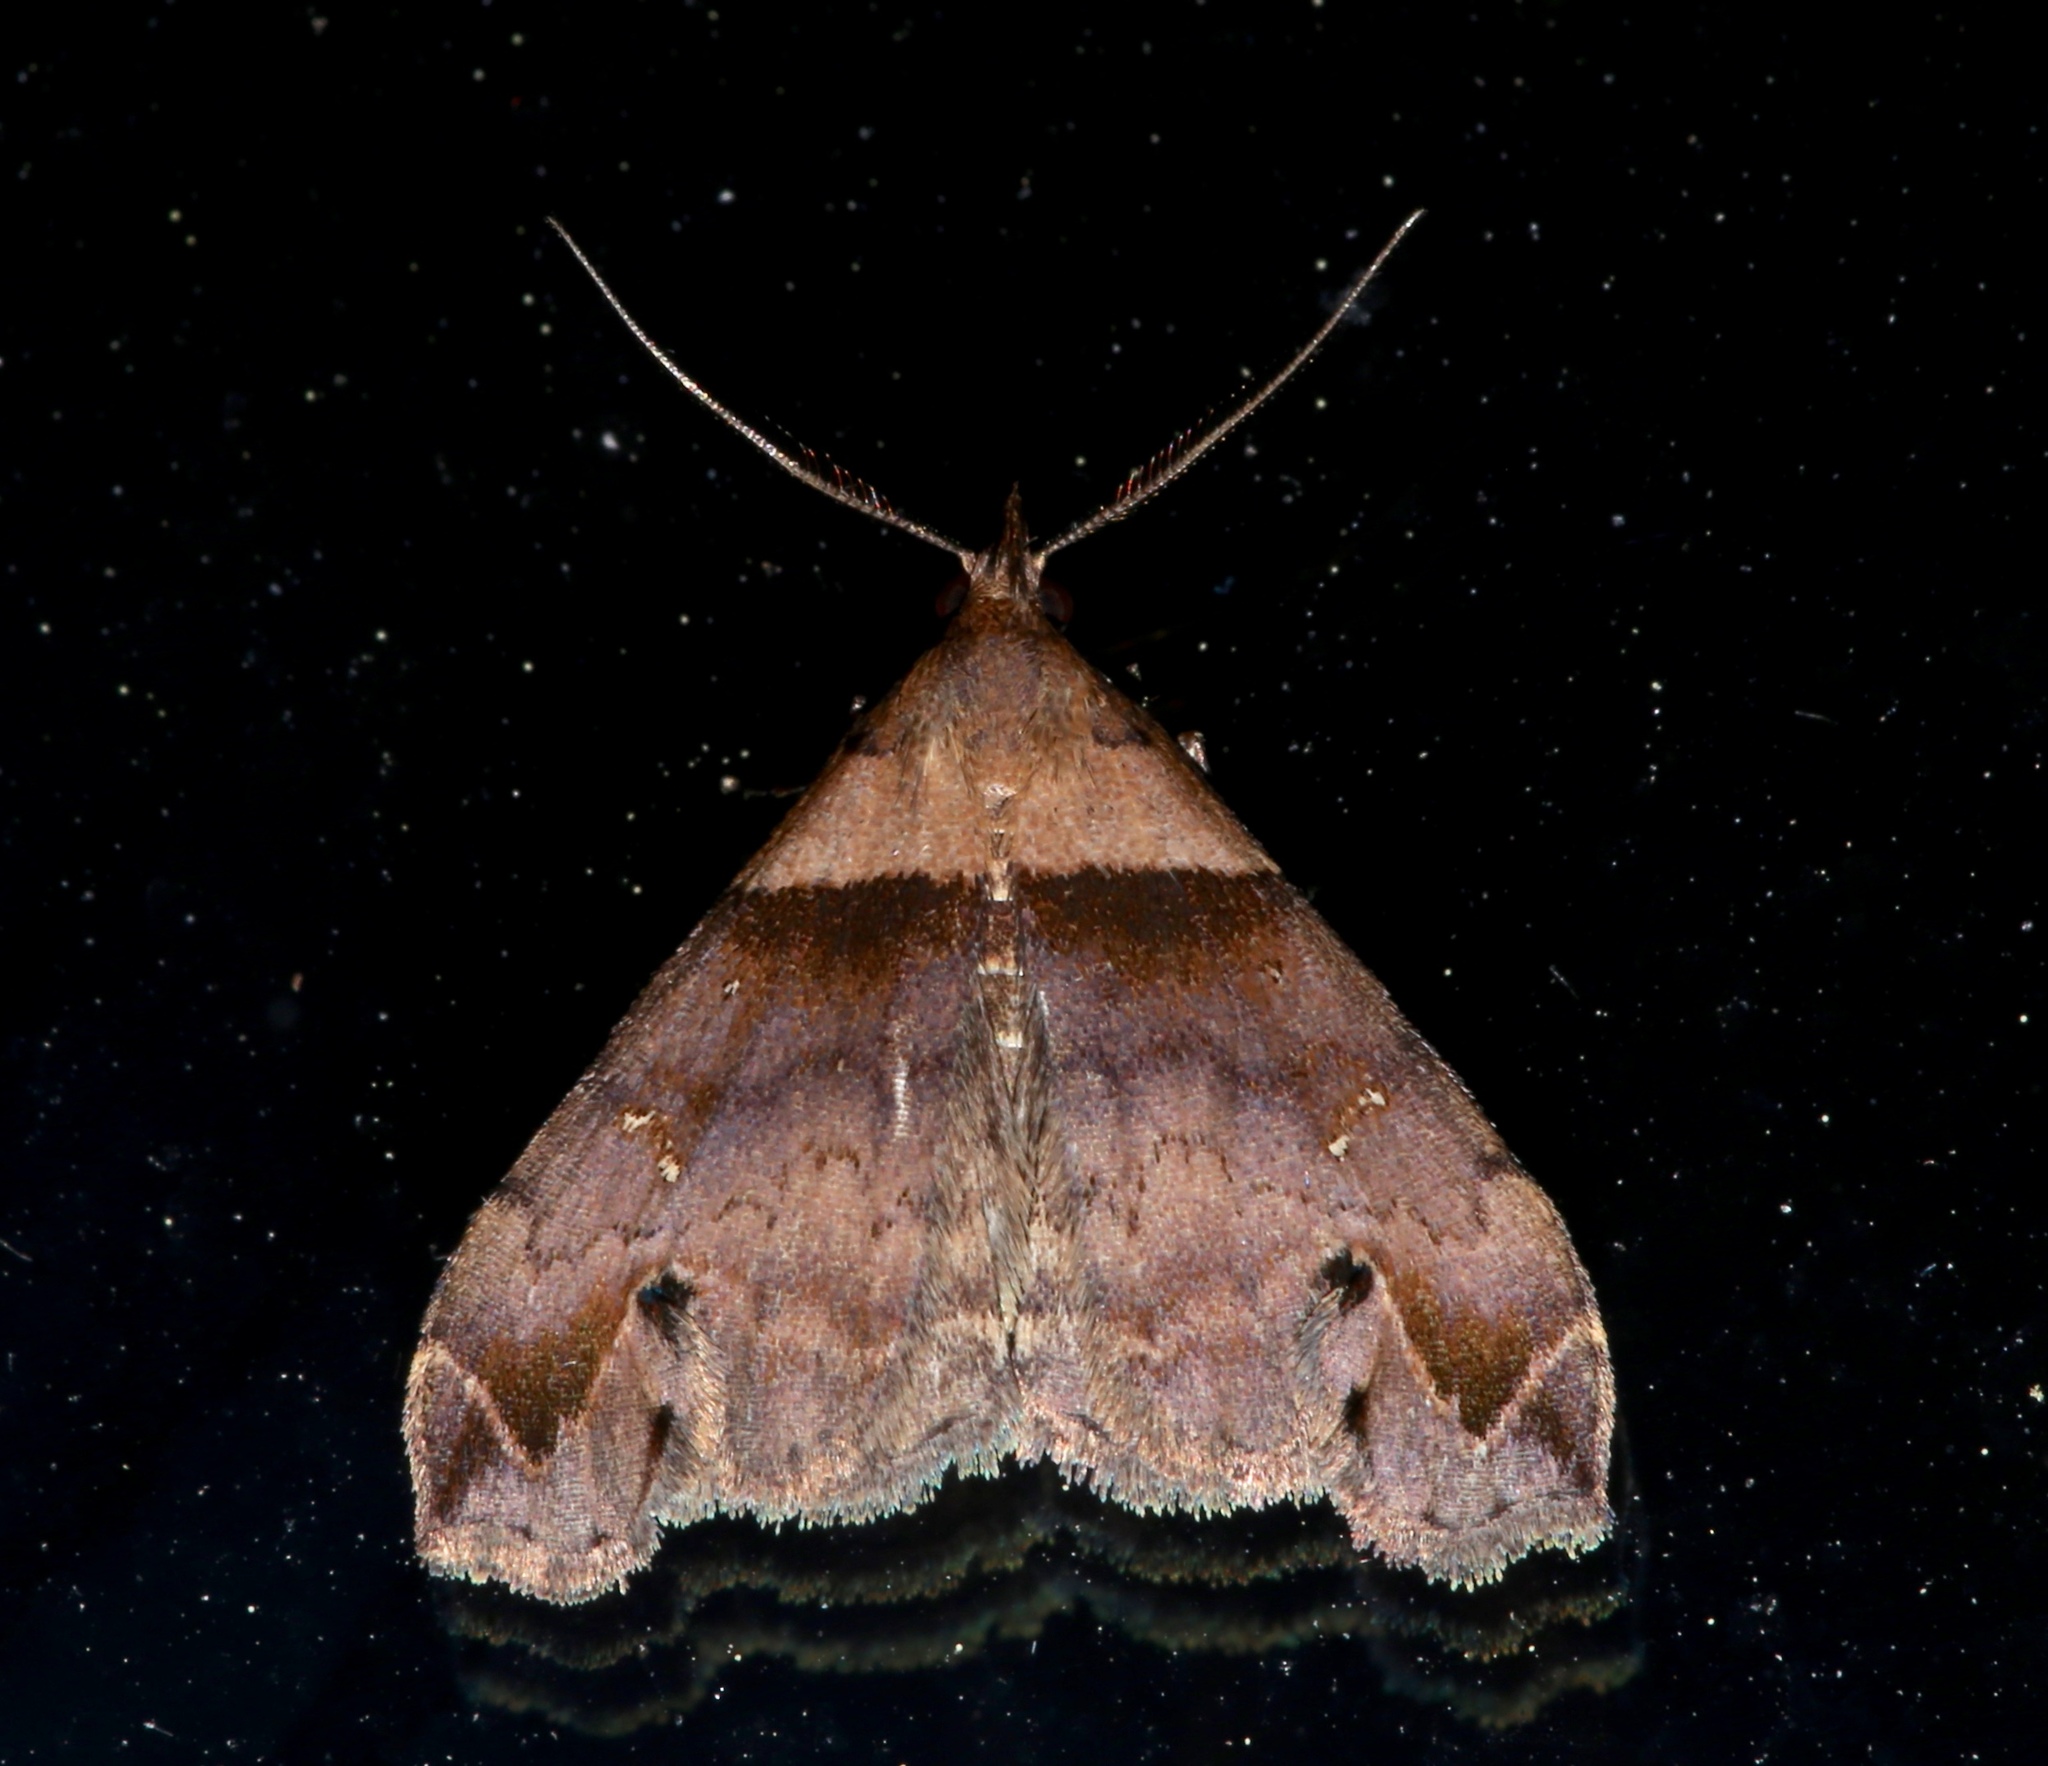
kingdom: Animalia
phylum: Arthropoda
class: Insecta
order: Lepidoptera
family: Erebidae
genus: Lascoria
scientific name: Lascoria ambigualis
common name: Ambiguous moth
